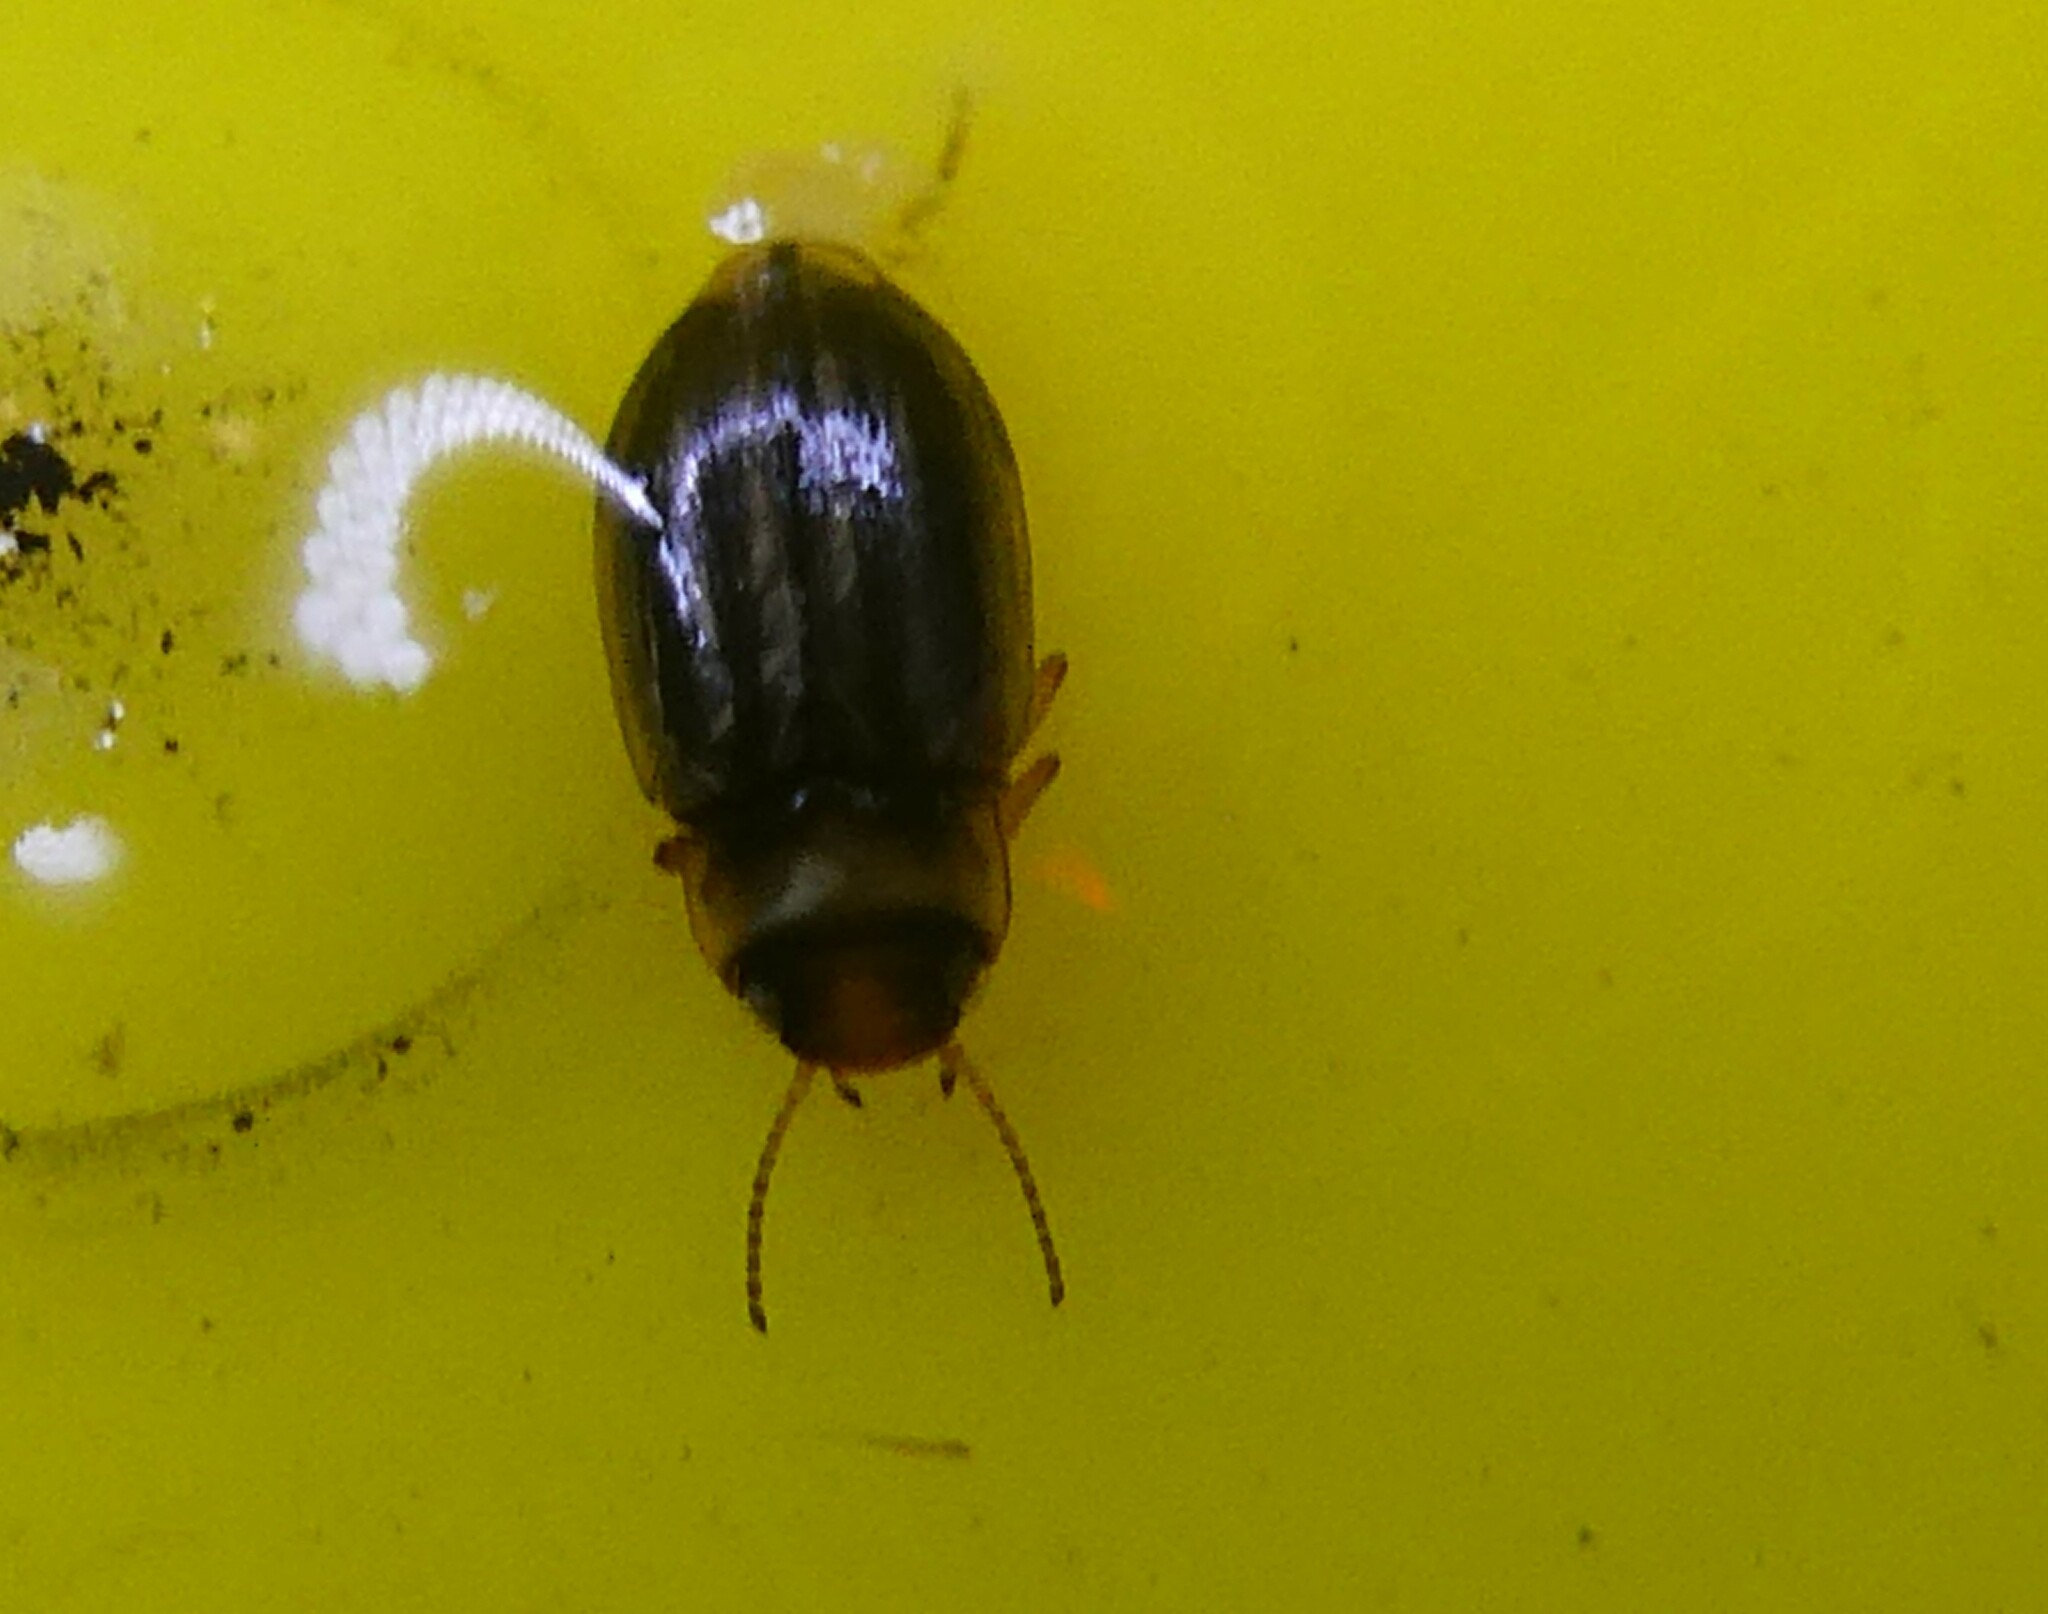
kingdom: Animalia
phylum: Arthropoda
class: Insecta
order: Coleoptera
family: Dytiscidae
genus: Huxelhydrus
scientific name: Huxelhydrus syntheticus
